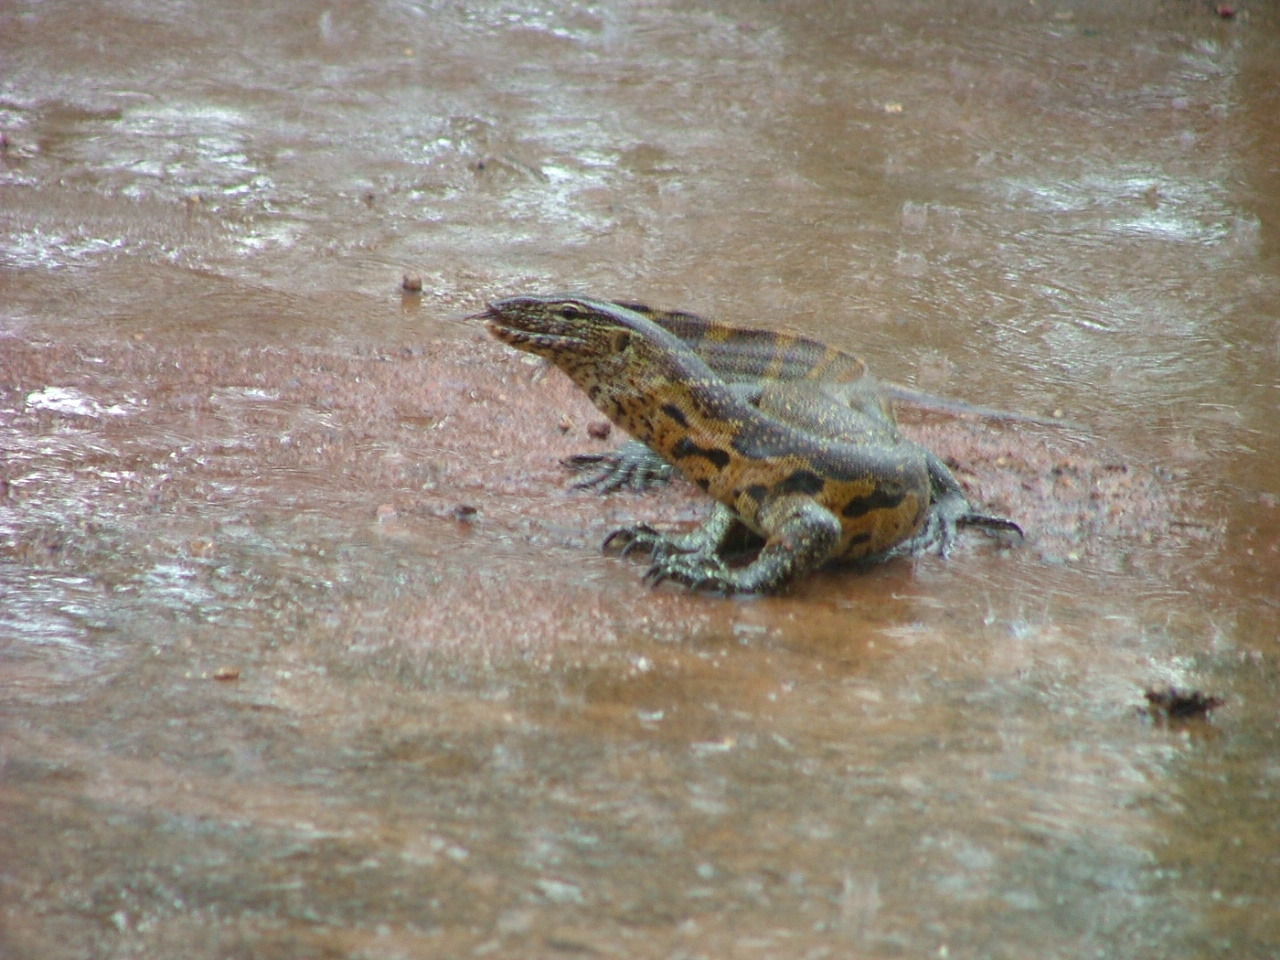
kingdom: Animalia
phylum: Chordata
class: Squamata
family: Varanidae
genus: Varanus
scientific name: Varanus niloticus
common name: Nile monitor
